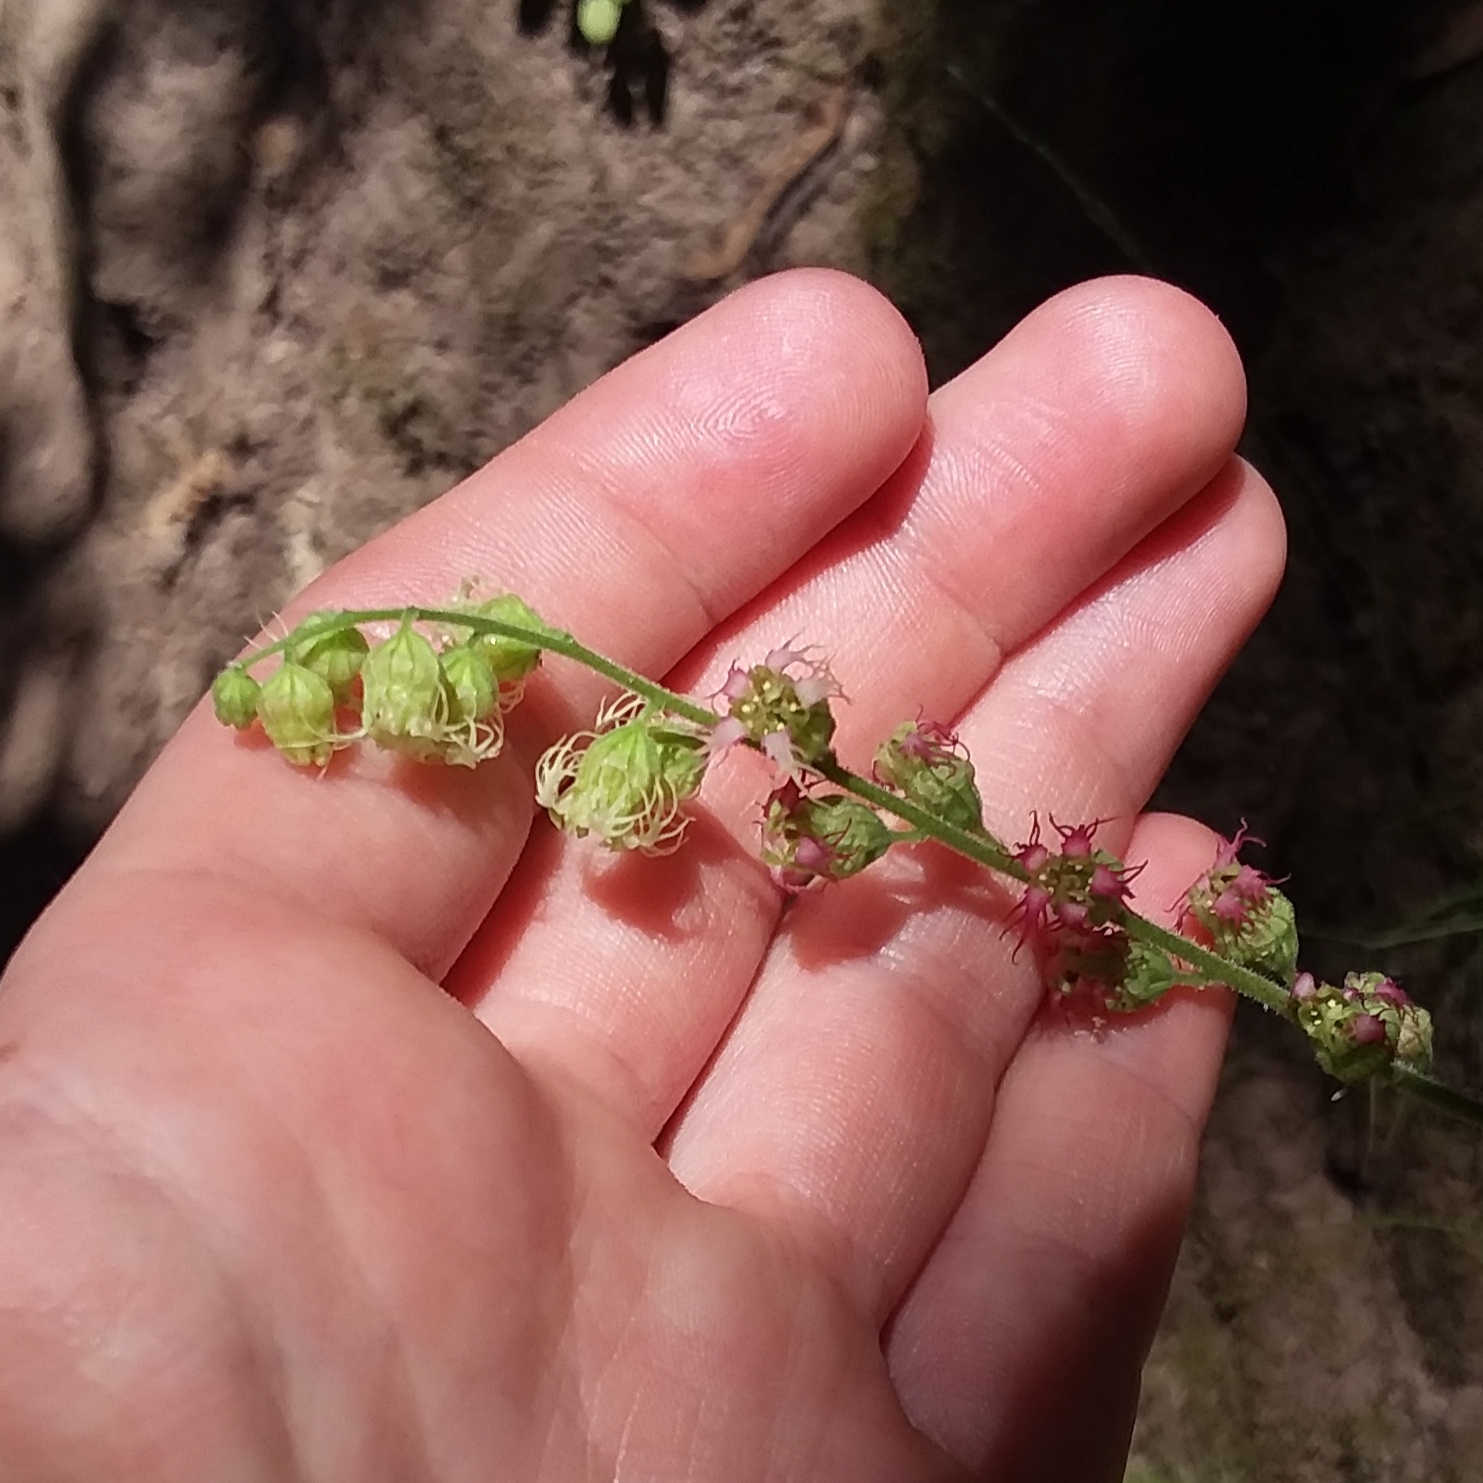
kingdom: Plantae
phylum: Tracheophyta
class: Magnoliopsida
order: Saxifragales
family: Saxifragaceae
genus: Tellima
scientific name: Tellima grandiflora
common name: Fringecups
